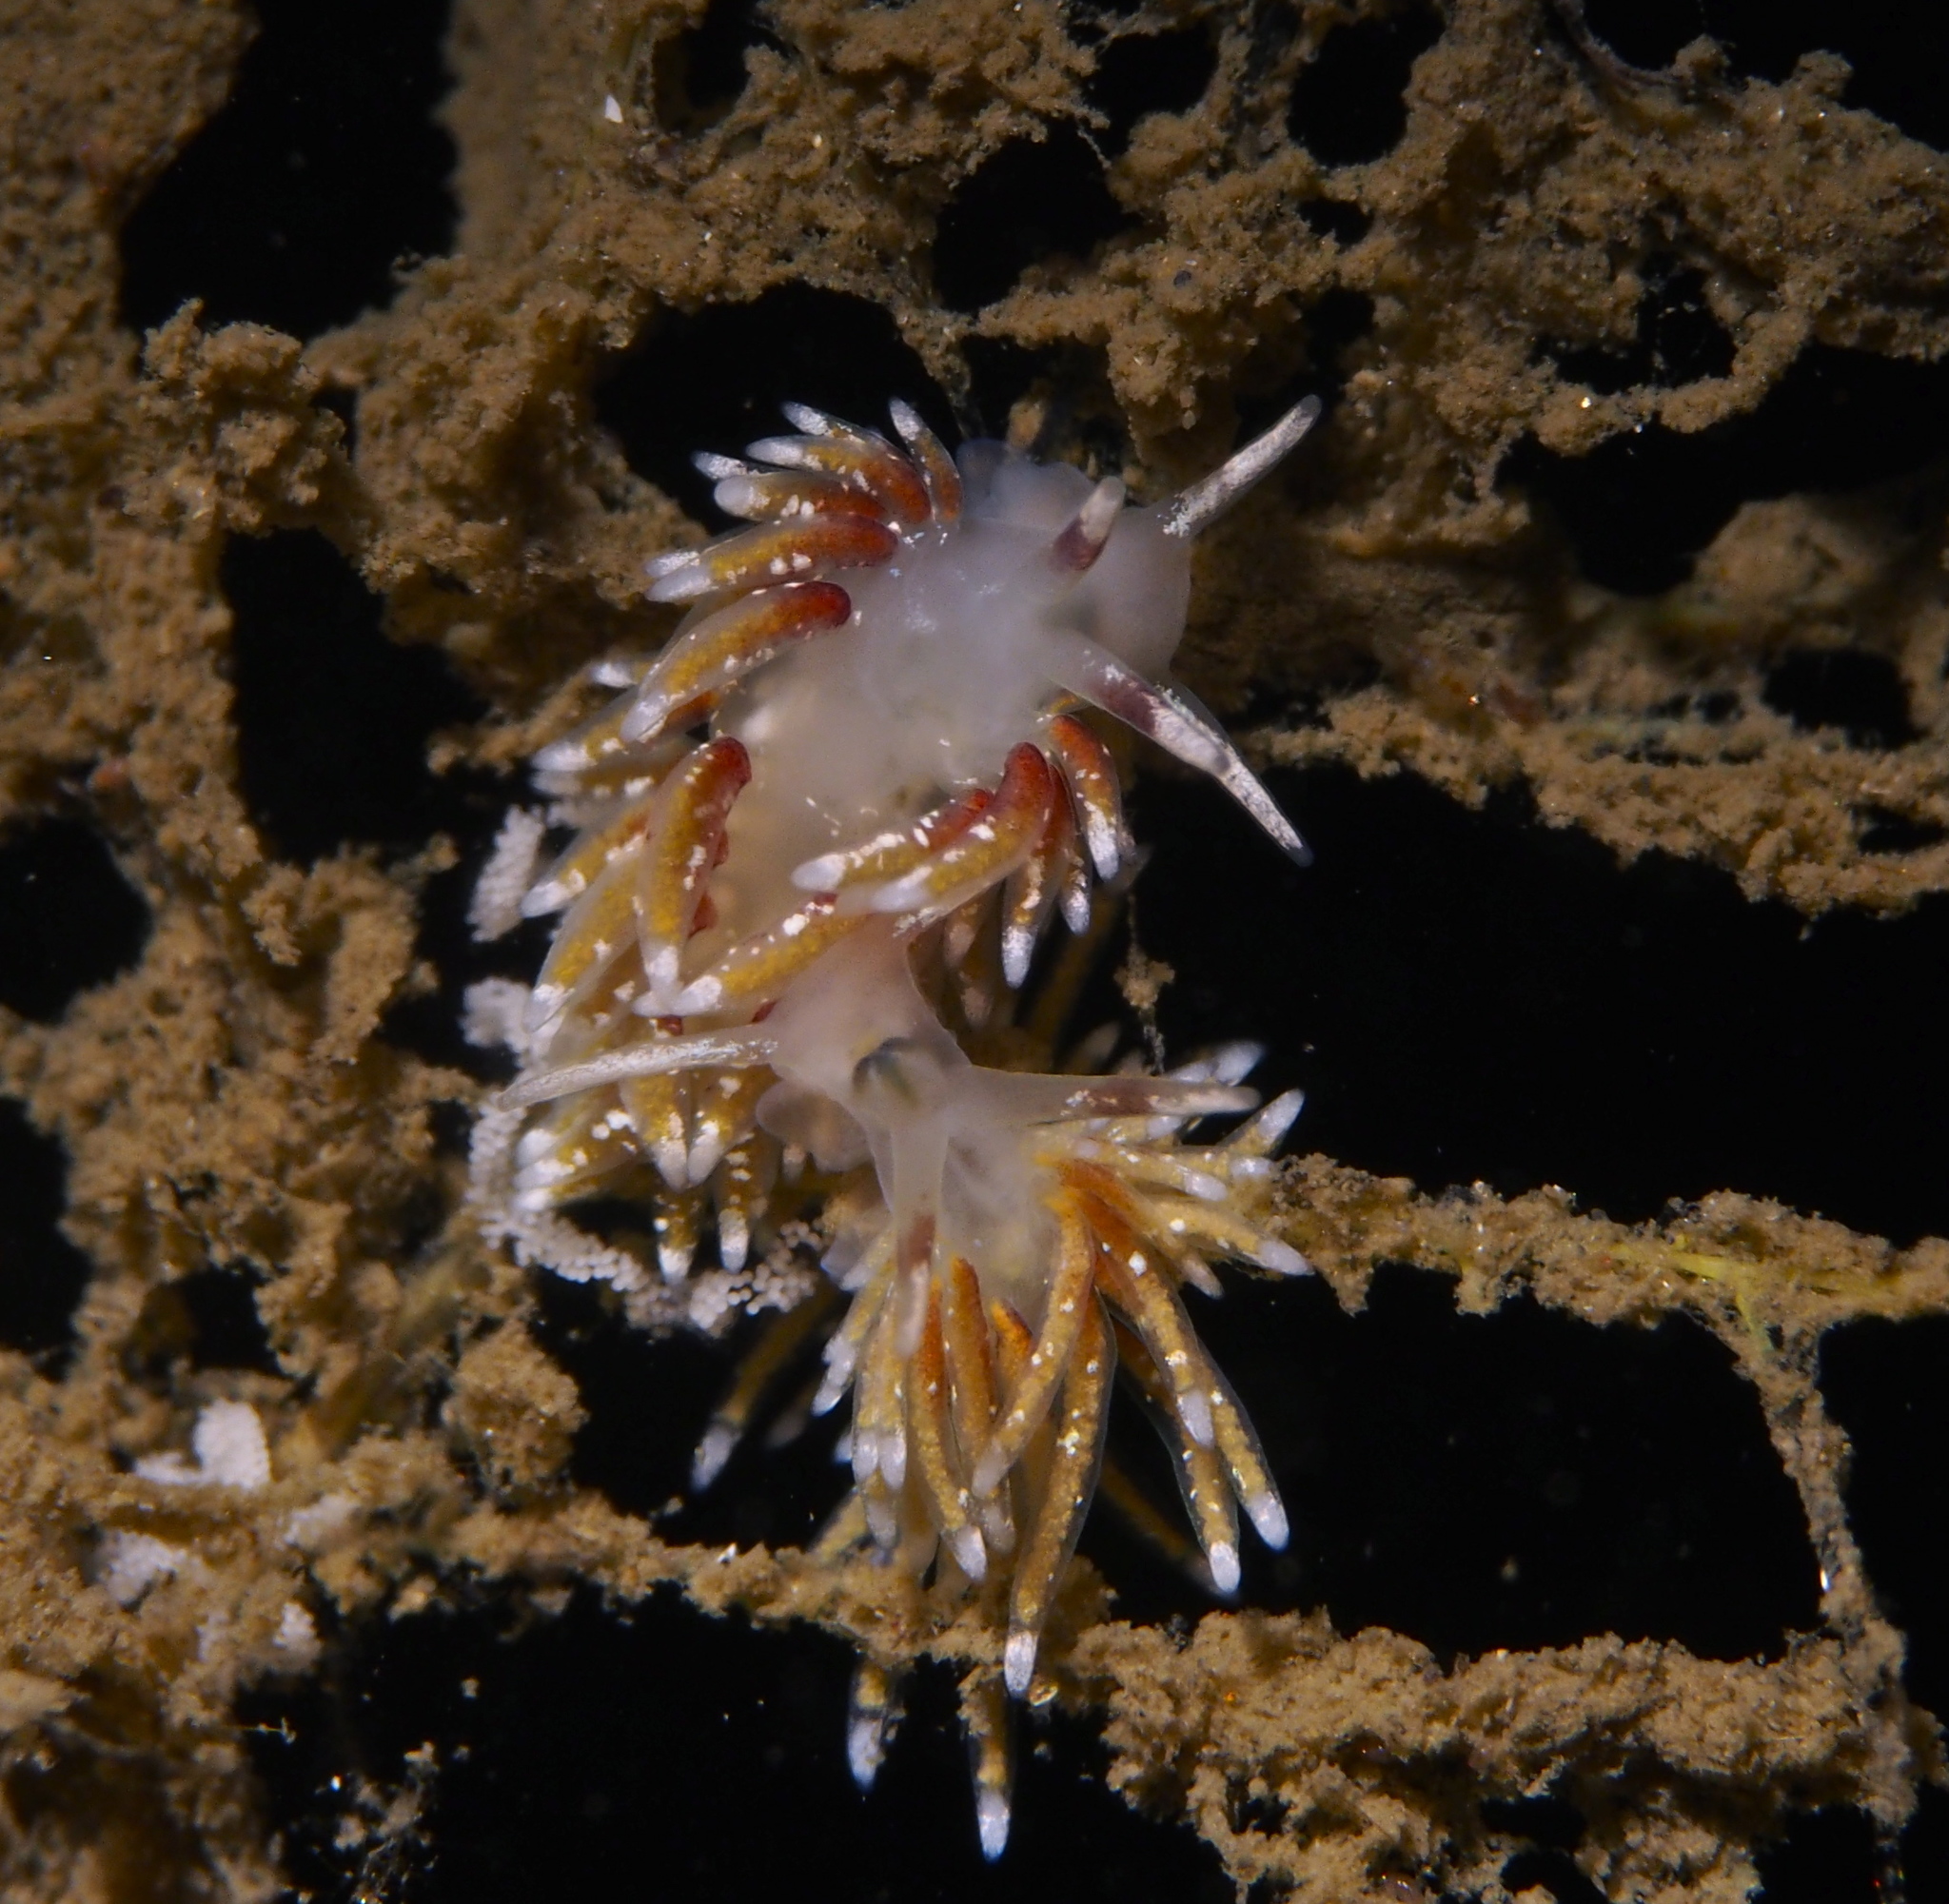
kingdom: Animalia
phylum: Mollusca
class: Gastropoda
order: Nudibranchia
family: Trinchesiidae
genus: Rubramoena
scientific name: Rubramoena rubescens
